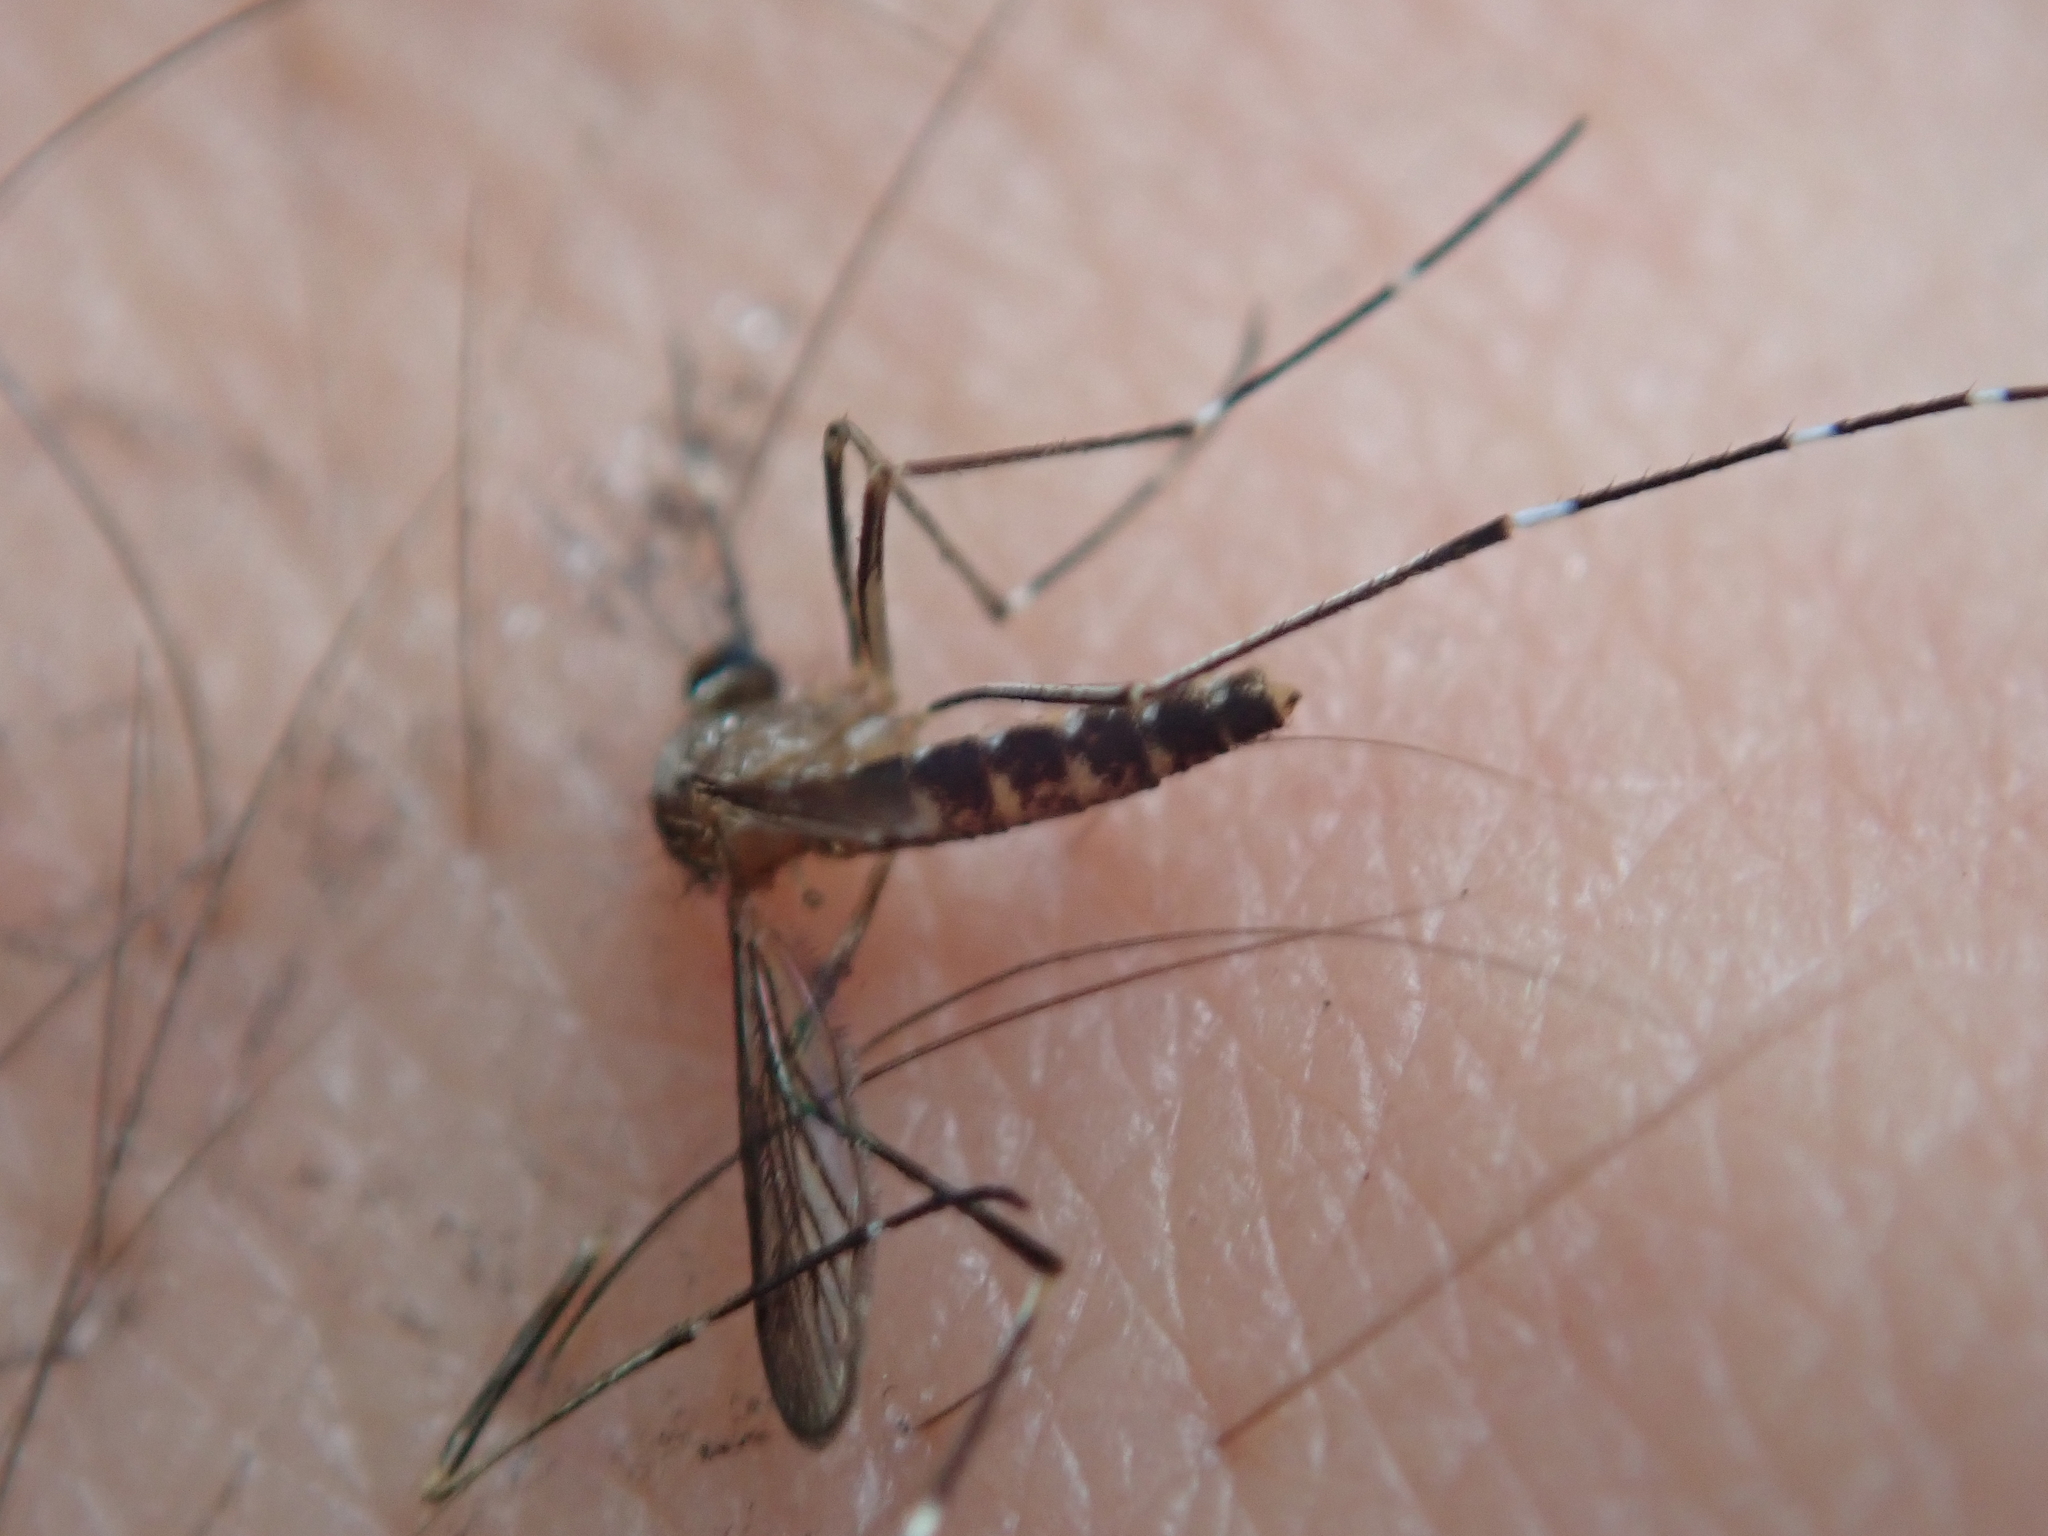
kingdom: Animalia
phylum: Arthropoda
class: Insecta
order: Diptera
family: Culicidae
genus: Aedes
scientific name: Aedes notoscriptus
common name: Australian backyard mosquito
